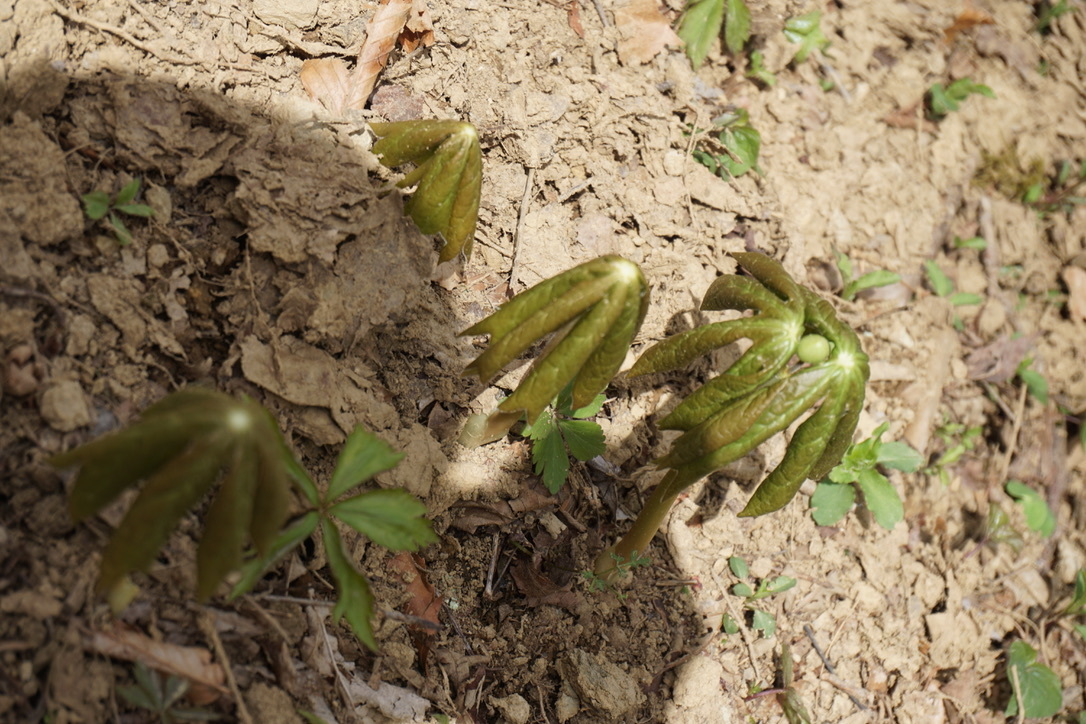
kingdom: Plantae
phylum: Tracheophyta
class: Magnoliopsida
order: Ranunculales
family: Berberidaceae
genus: Podophyllum
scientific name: Podophyllum peltatum
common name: Wild mandrake
